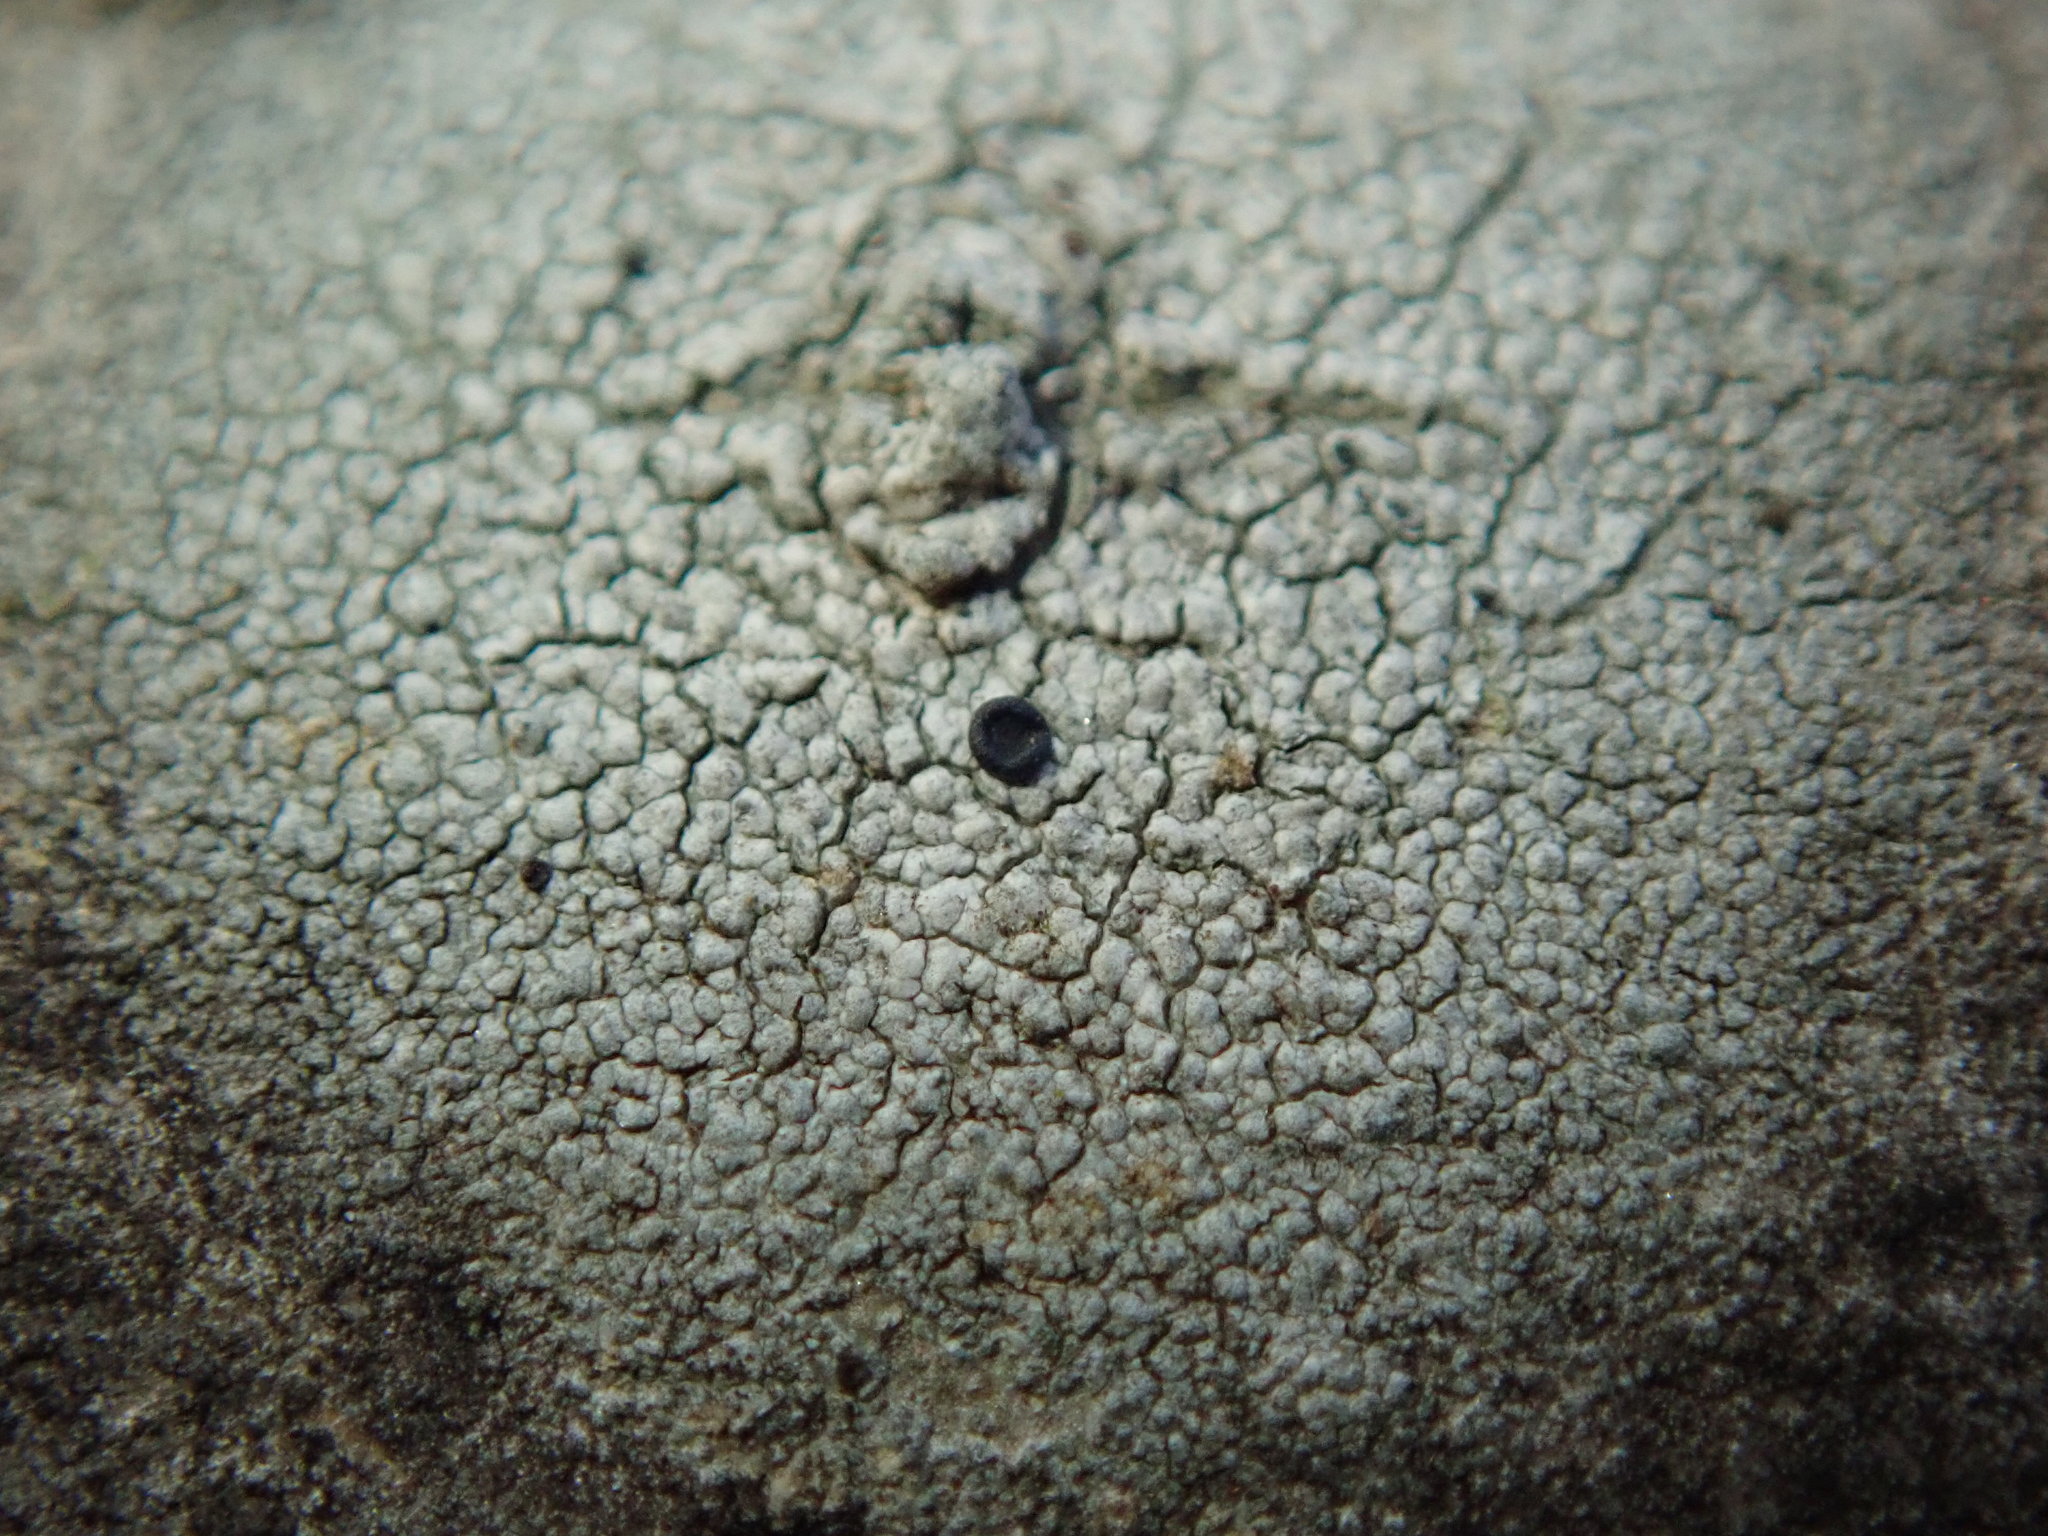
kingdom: Fungi
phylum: Ascomycota
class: Lecanoromycetes
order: Caliciales
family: Caliciaceae
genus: Buellia
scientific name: Buellia erubescens
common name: Common button lichen
